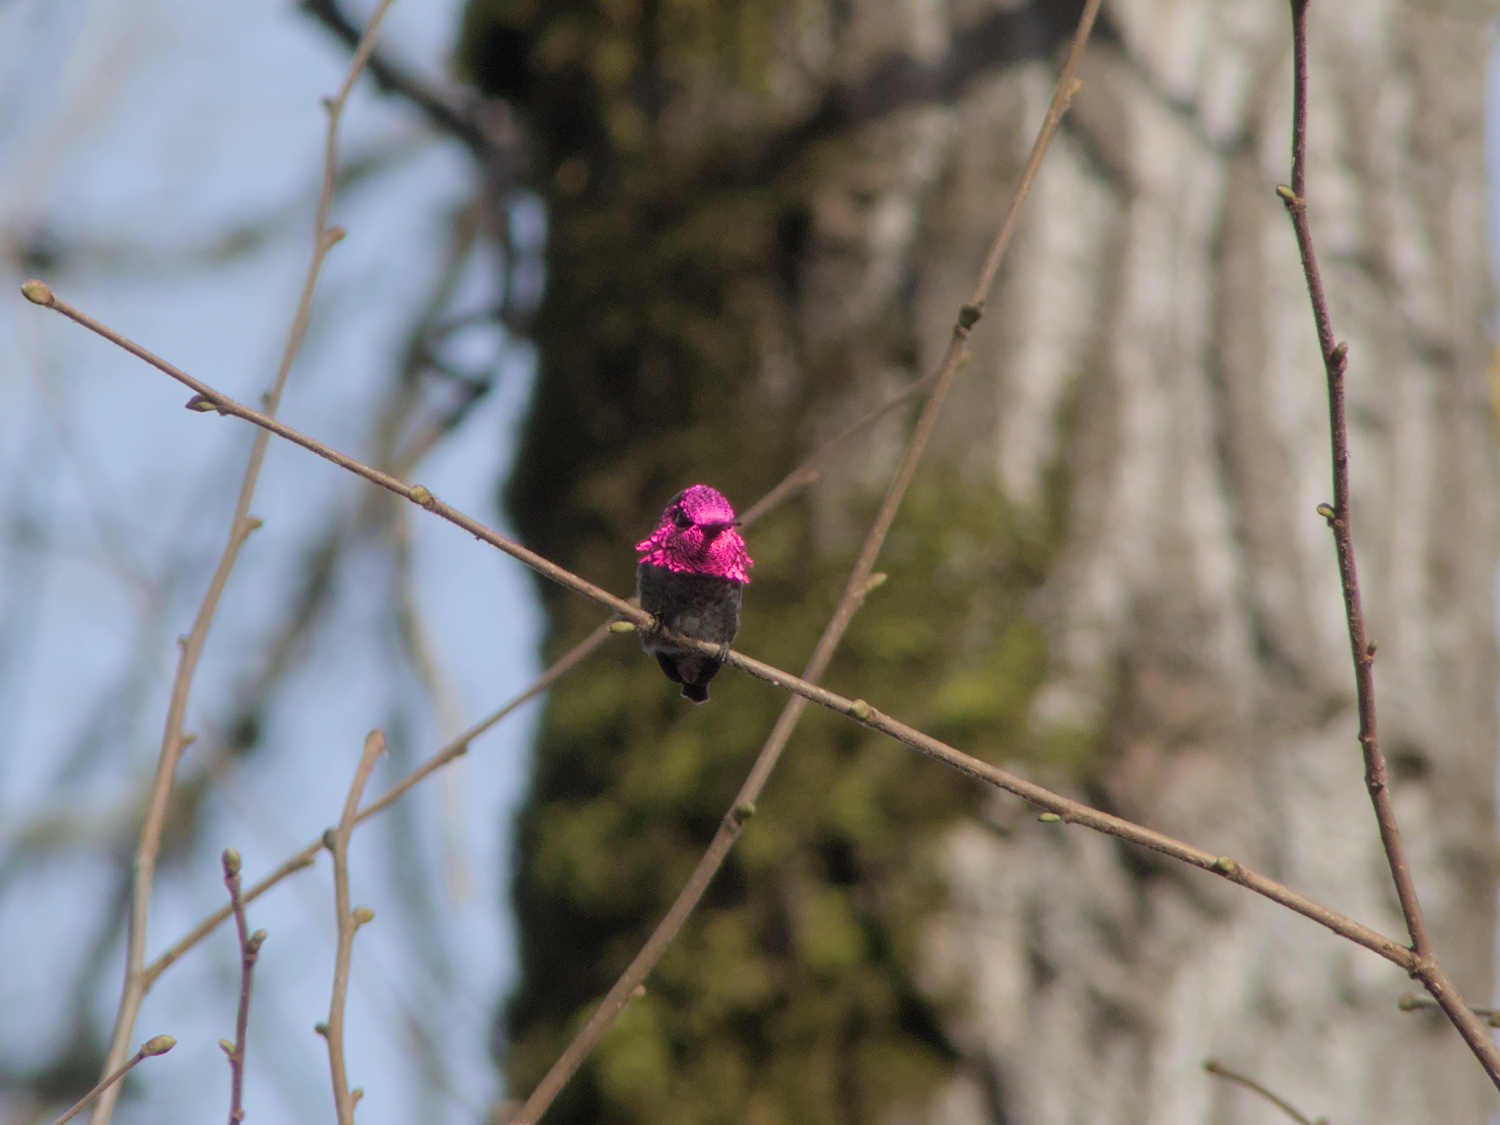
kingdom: Animalia
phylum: Chordata
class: Aves
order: Apodiformes
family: Trochilidae
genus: Calypte
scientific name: Calypte anna
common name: Anna's hummingbird
